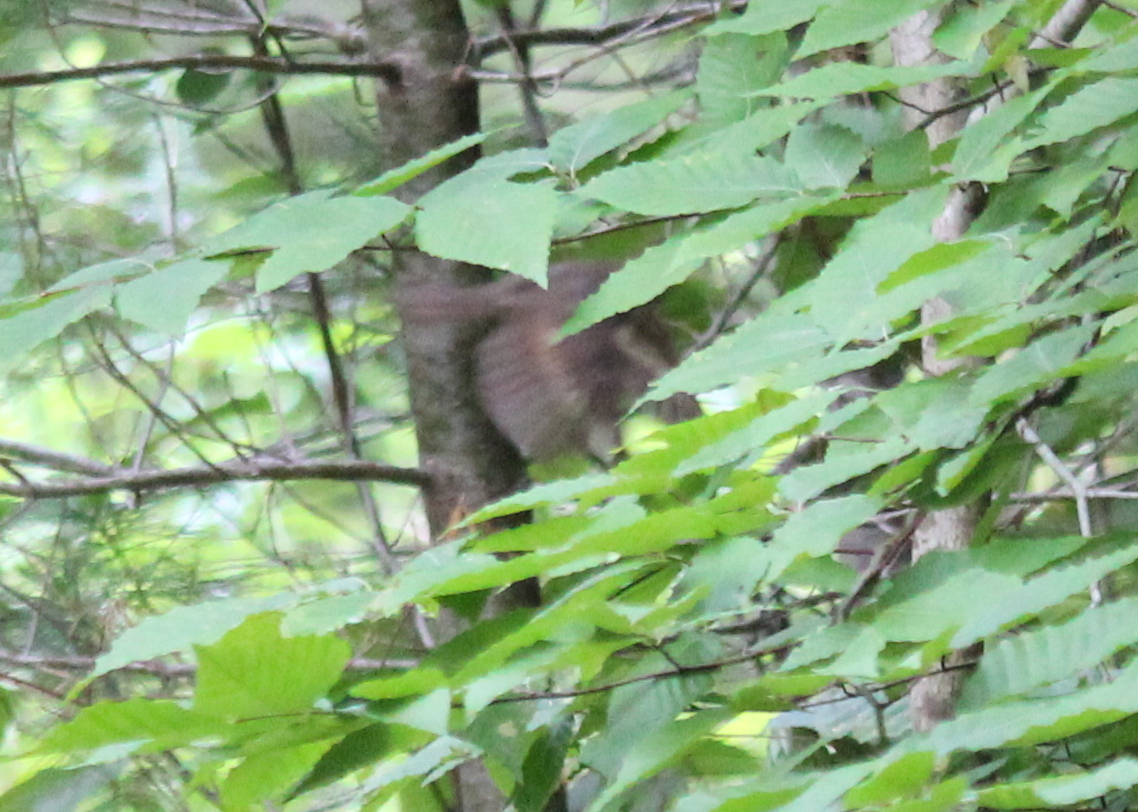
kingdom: Animalia
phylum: Chordata
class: Aves
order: Passeriformes
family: Turdidae
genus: Catharus
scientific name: Catharus ustulatus
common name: Swainson's thrush
